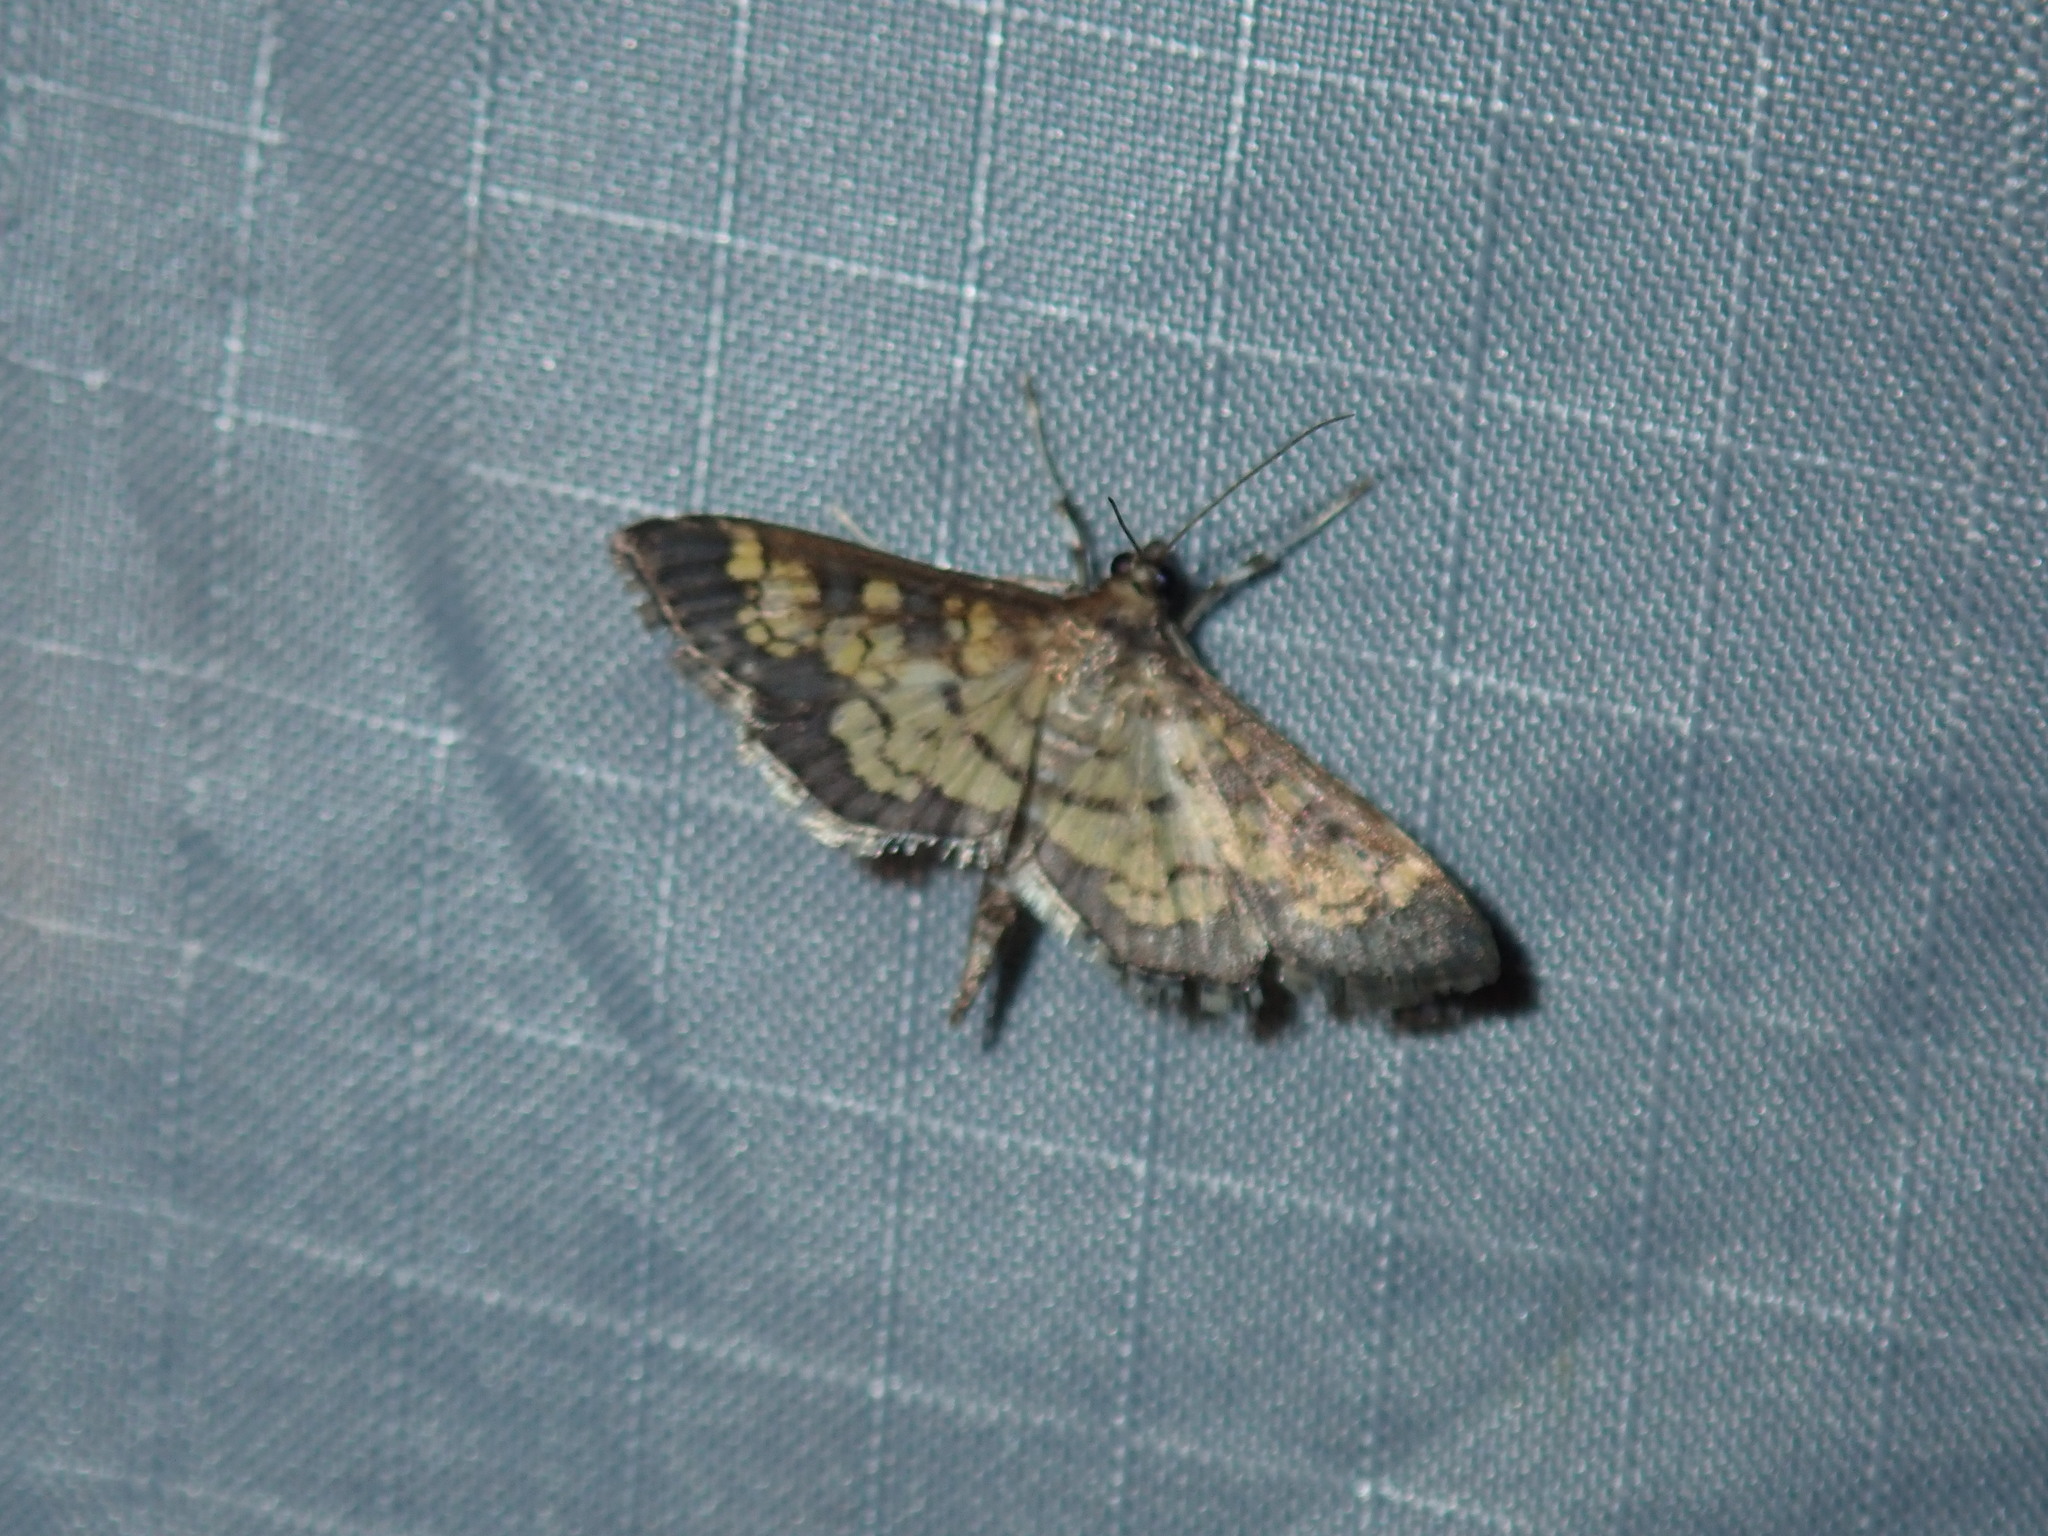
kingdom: Animalia
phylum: Arthropoda
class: Insecta
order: Lepidoptera
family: Crambidae
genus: Epipagis
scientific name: Epipagis adipaloides
